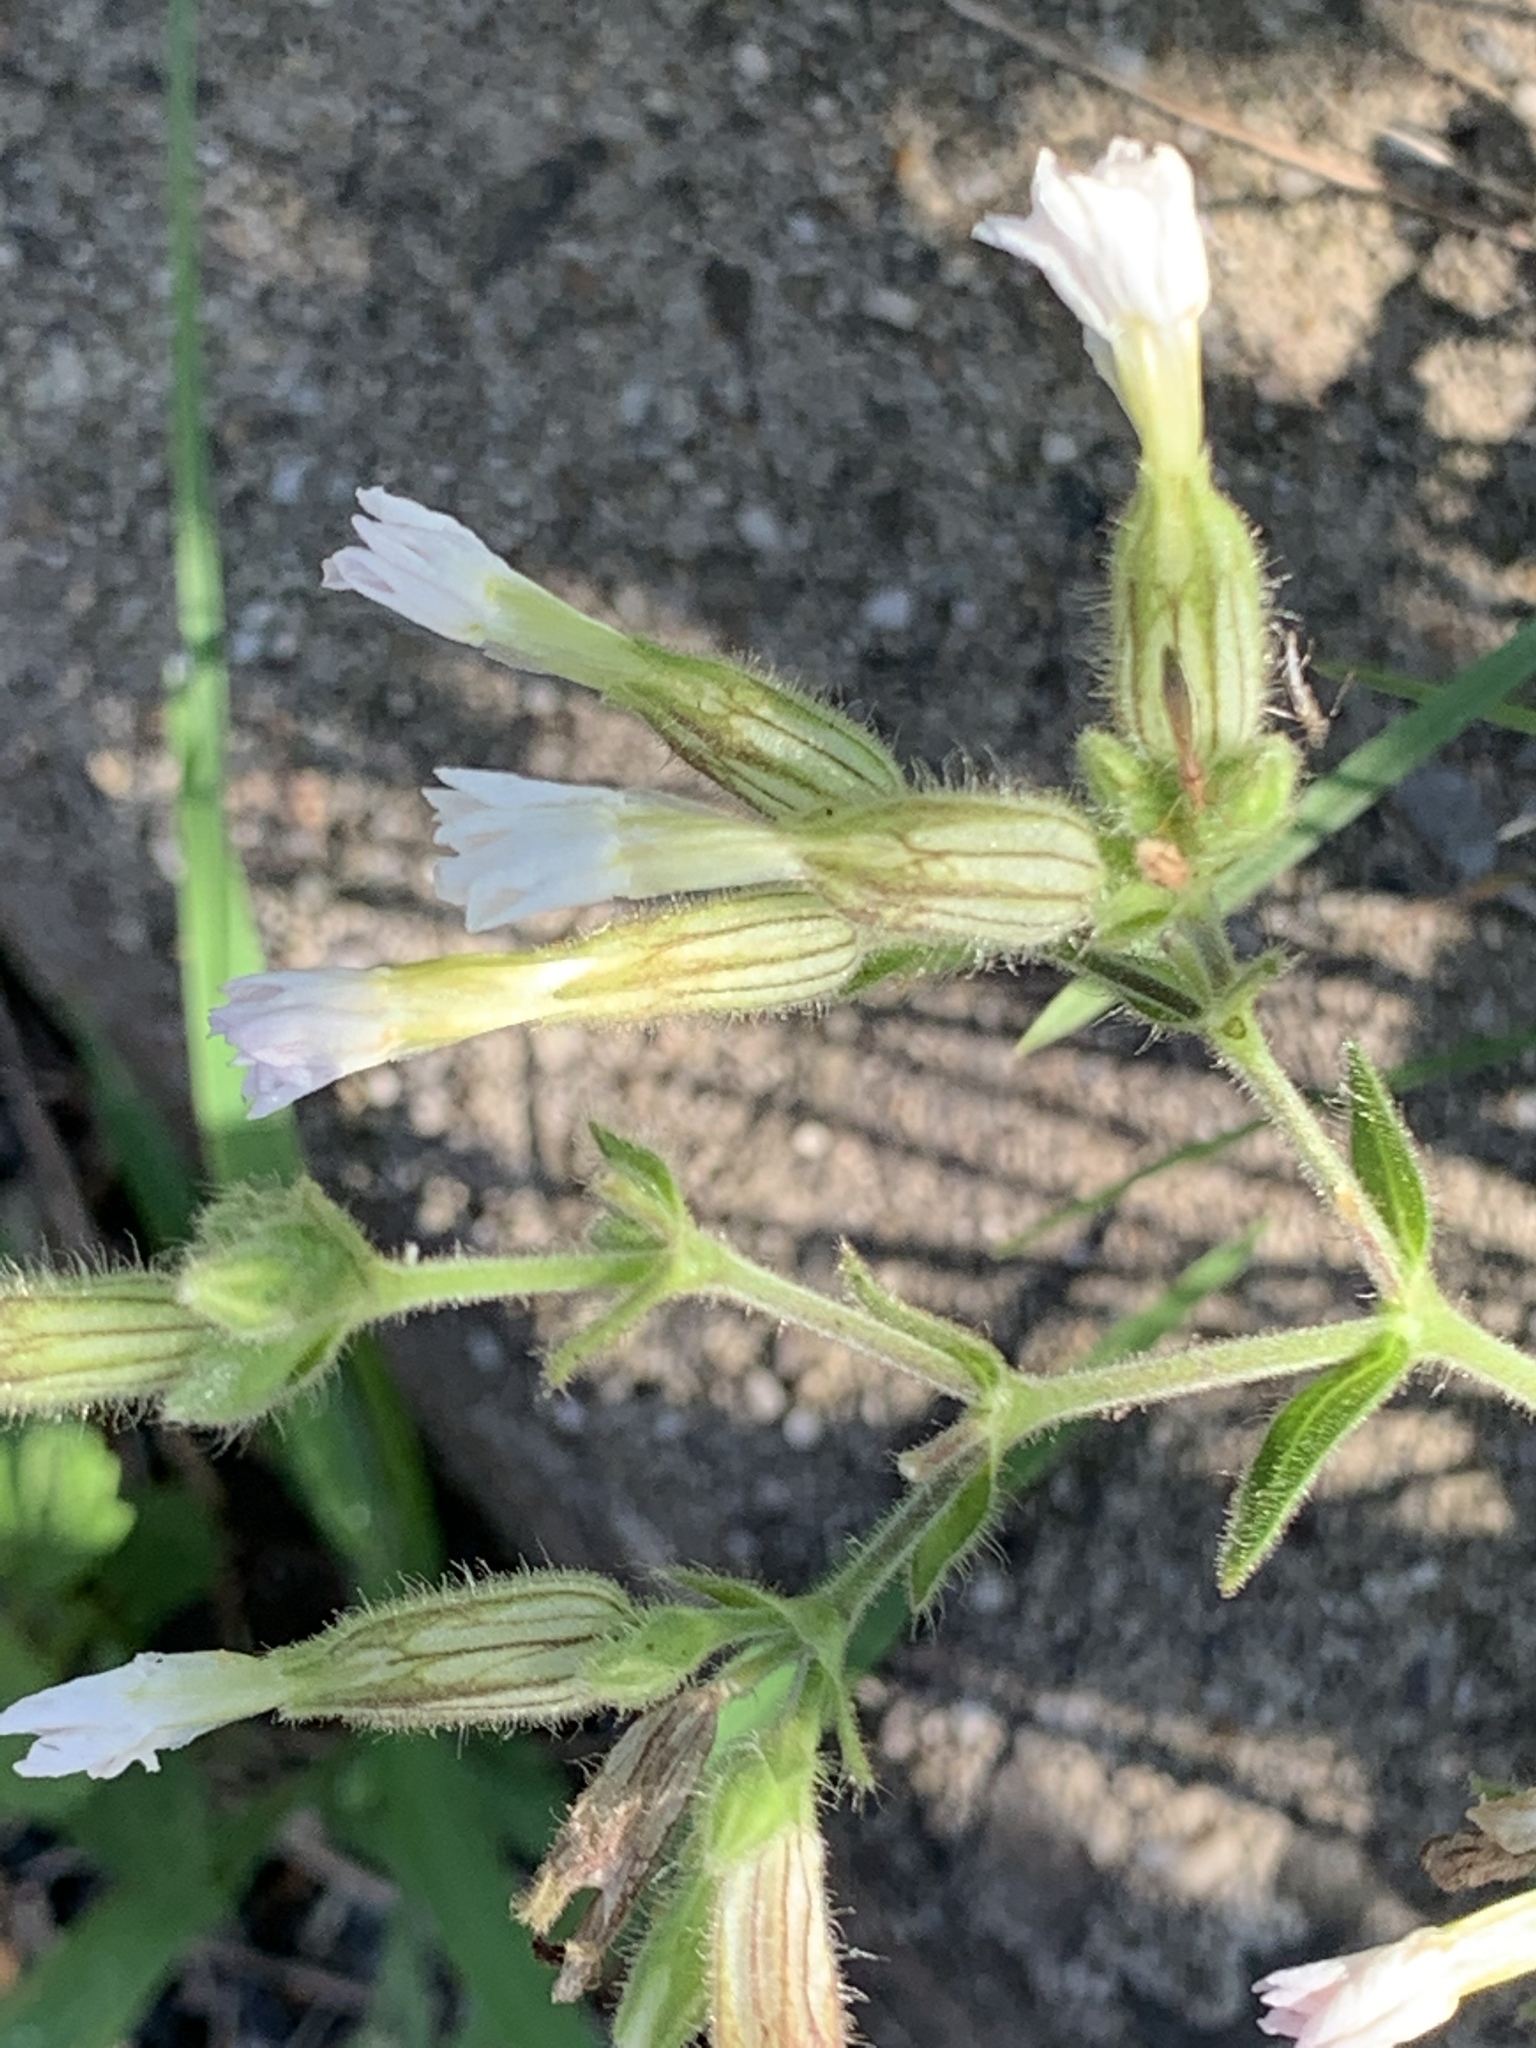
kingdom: Plantae
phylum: Tracheophyta
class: Magnoliopsida
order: Caryophyllales
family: Caryophyllaceae
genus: Silene
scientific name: Silene latifolia
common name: White campion
